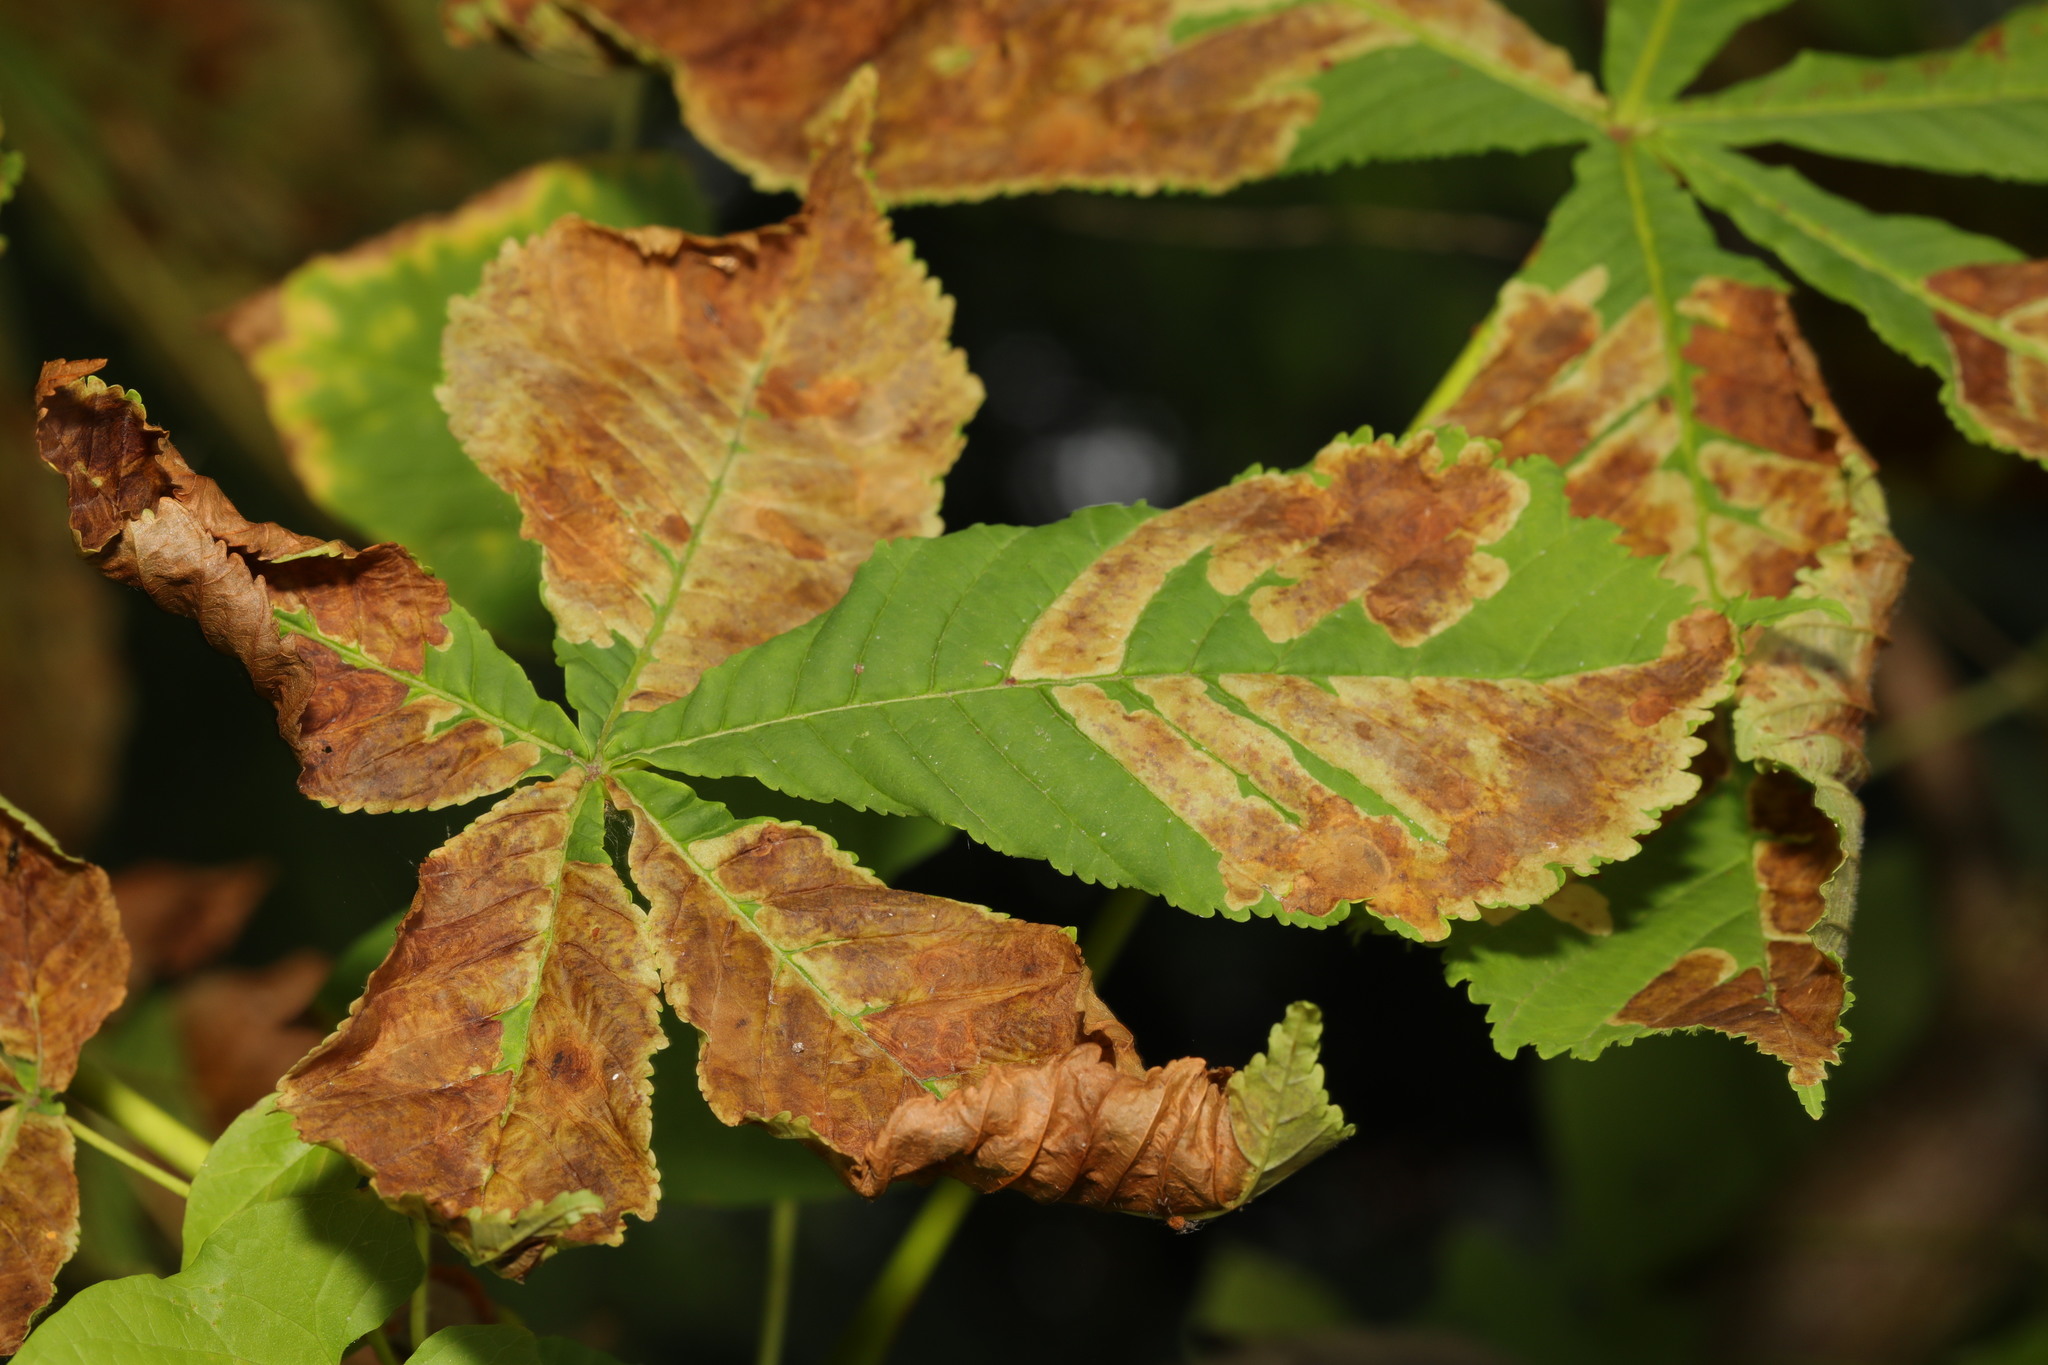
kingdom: Plantae
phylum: Tracheophyta
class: Magnoliopsida
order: Sapindales
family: Sapindaceae
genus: Aesculus
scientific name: Aesculus hippocastanum
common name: Horse-chestnut
